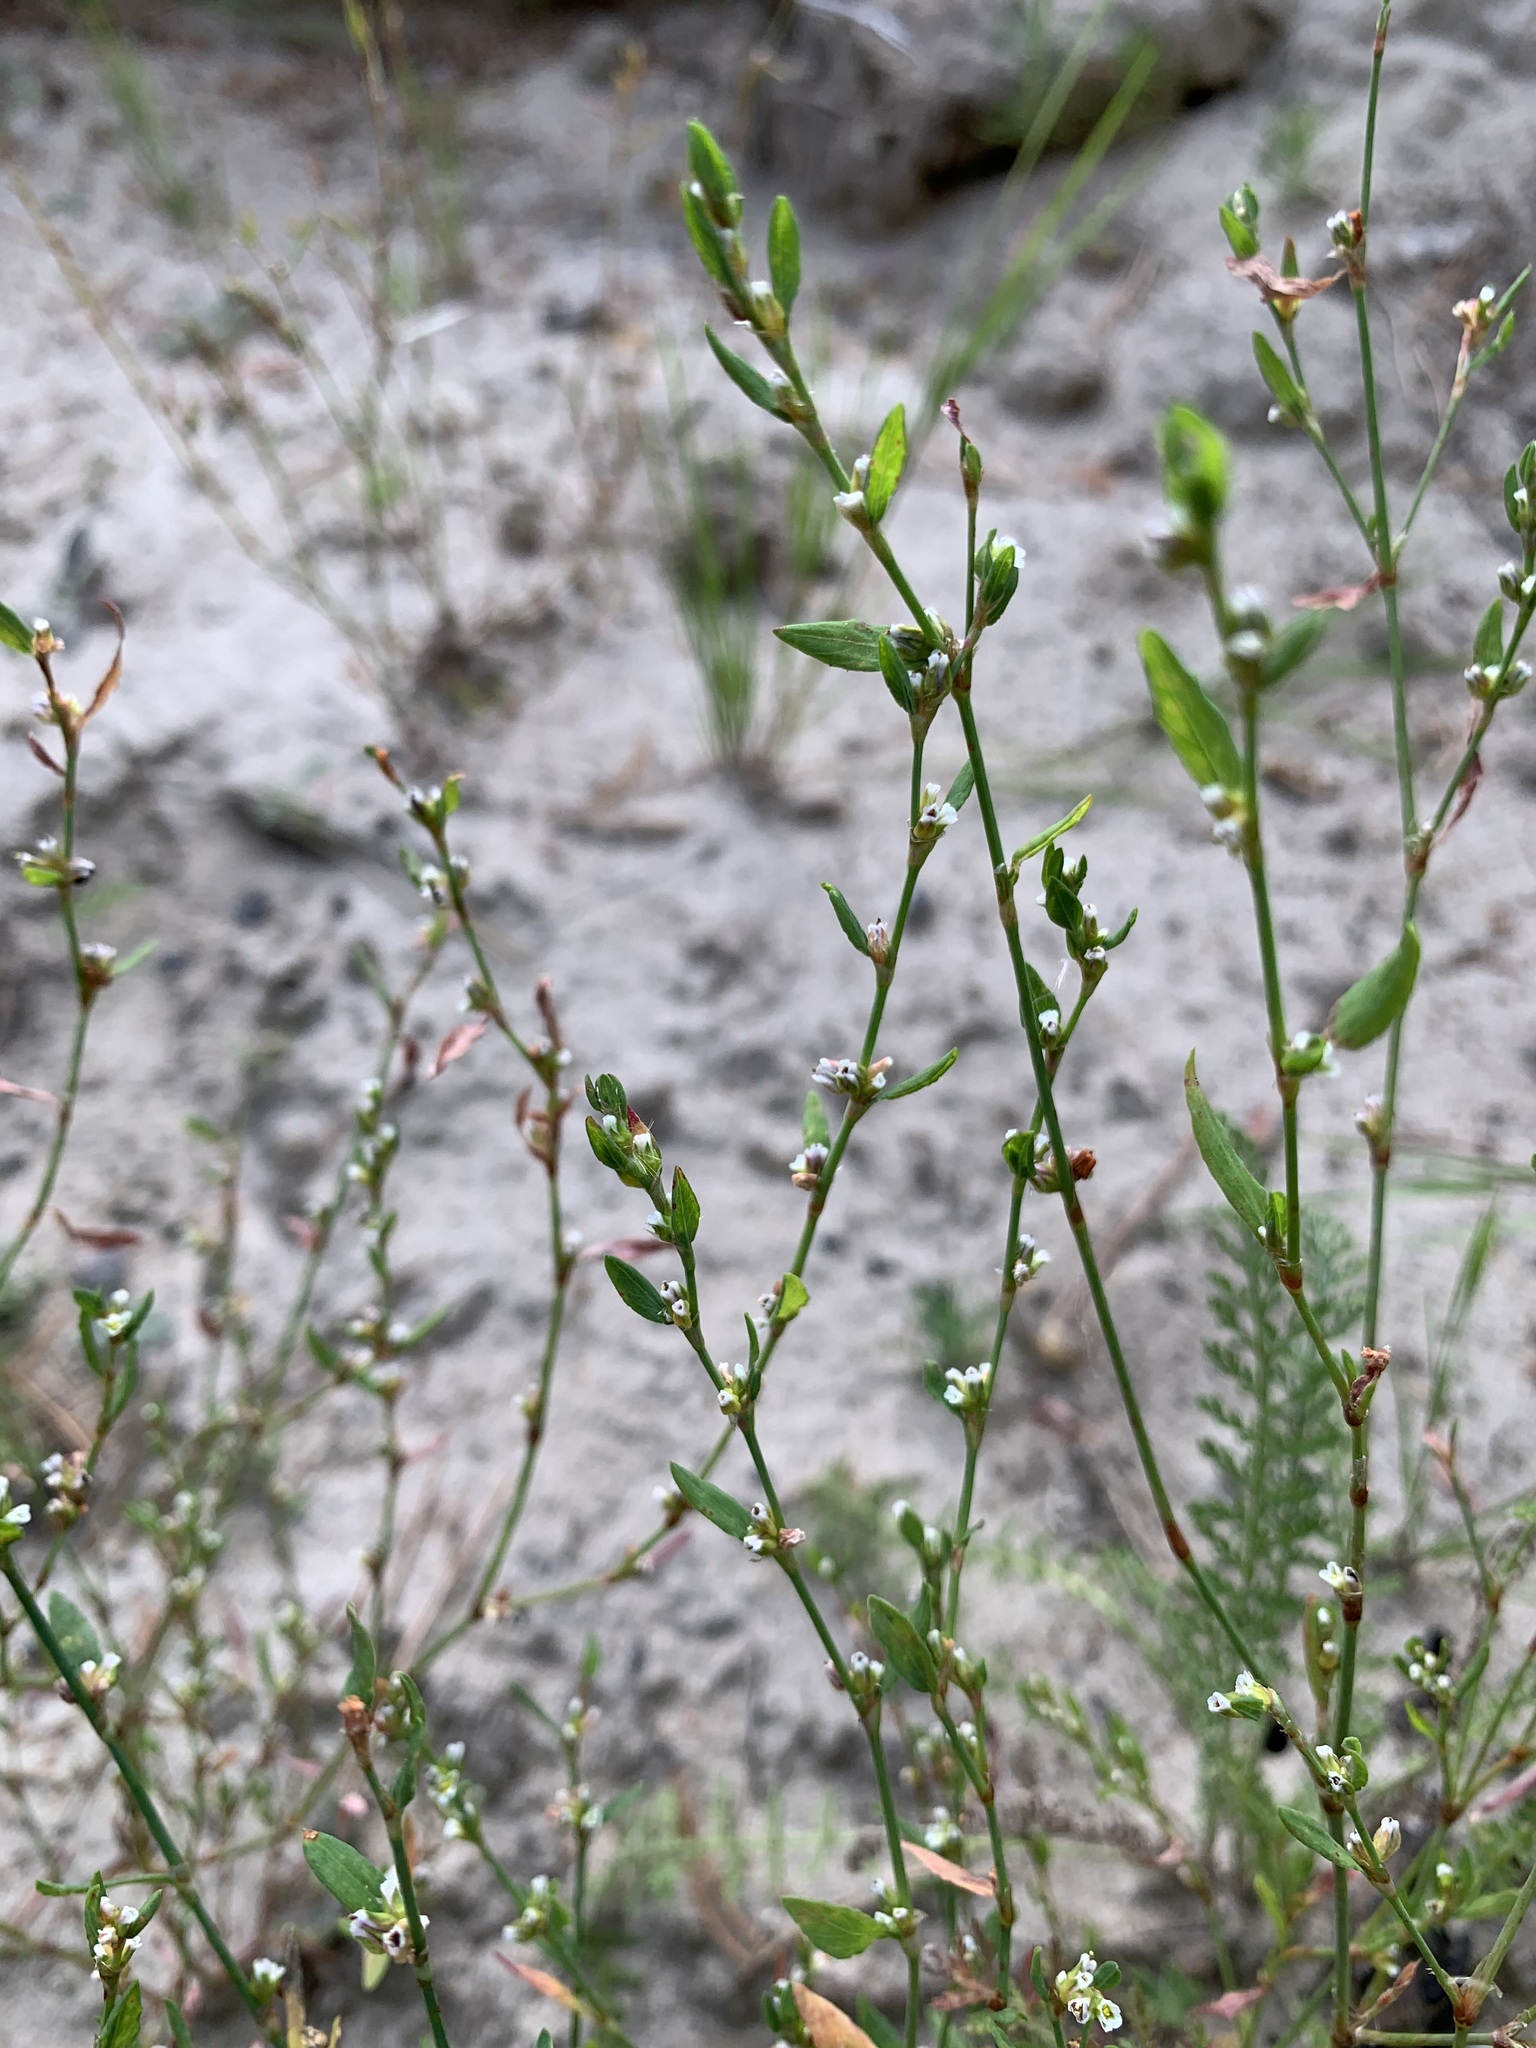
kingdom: Plantae
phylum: Tracheophyta
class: Magnoliopsida
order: Caryophyllales
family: Polygonaceae
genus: Polygonum
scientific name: Polygonum arenastrum
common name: Equal-leaved knotgrass
